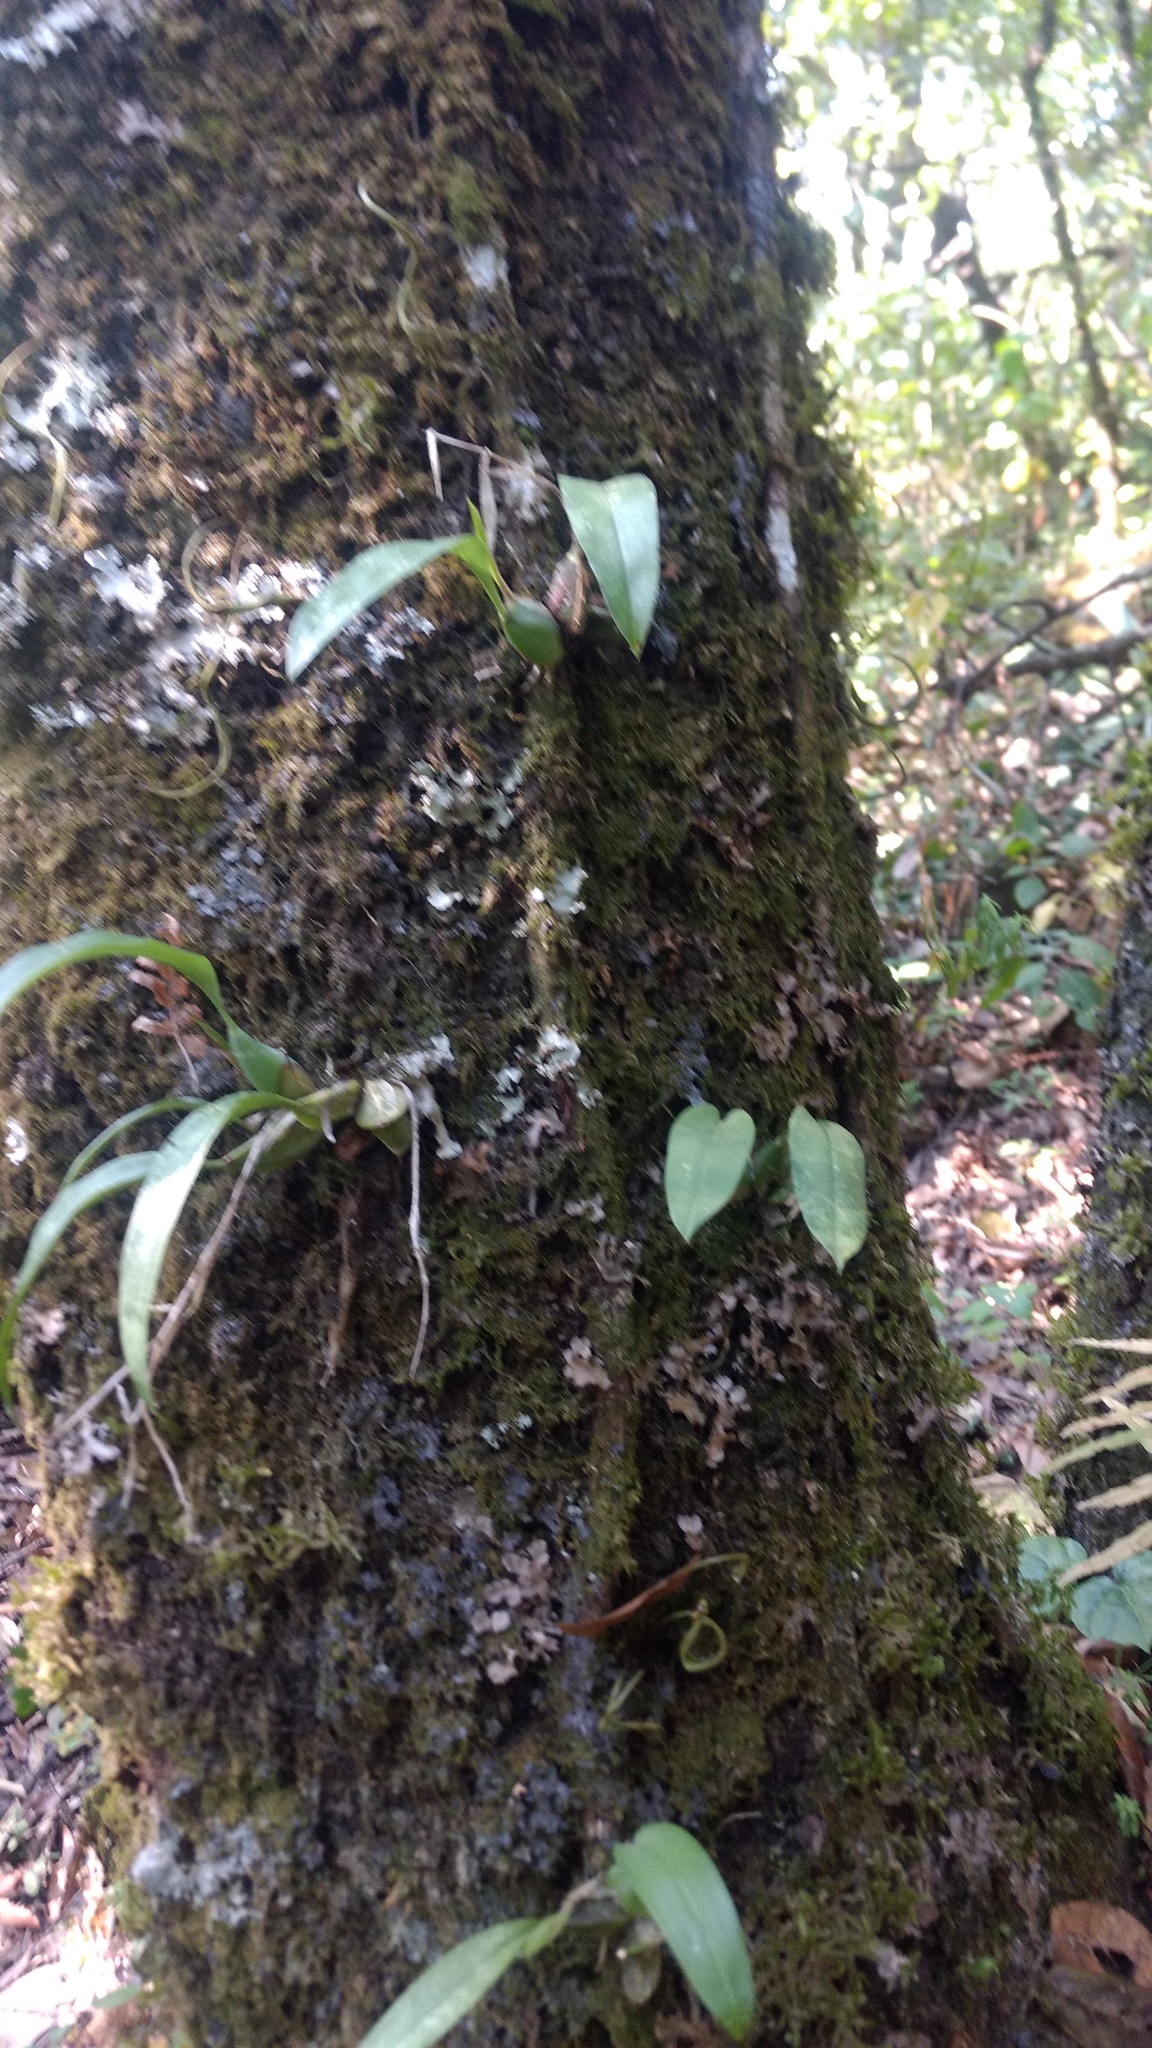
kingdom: Plantae
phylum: Tracheophyta
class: Liliopsida
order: Asparagales
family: Orchidaceae
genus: Rhynchostele
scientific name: Rhynchostele cervantesii
